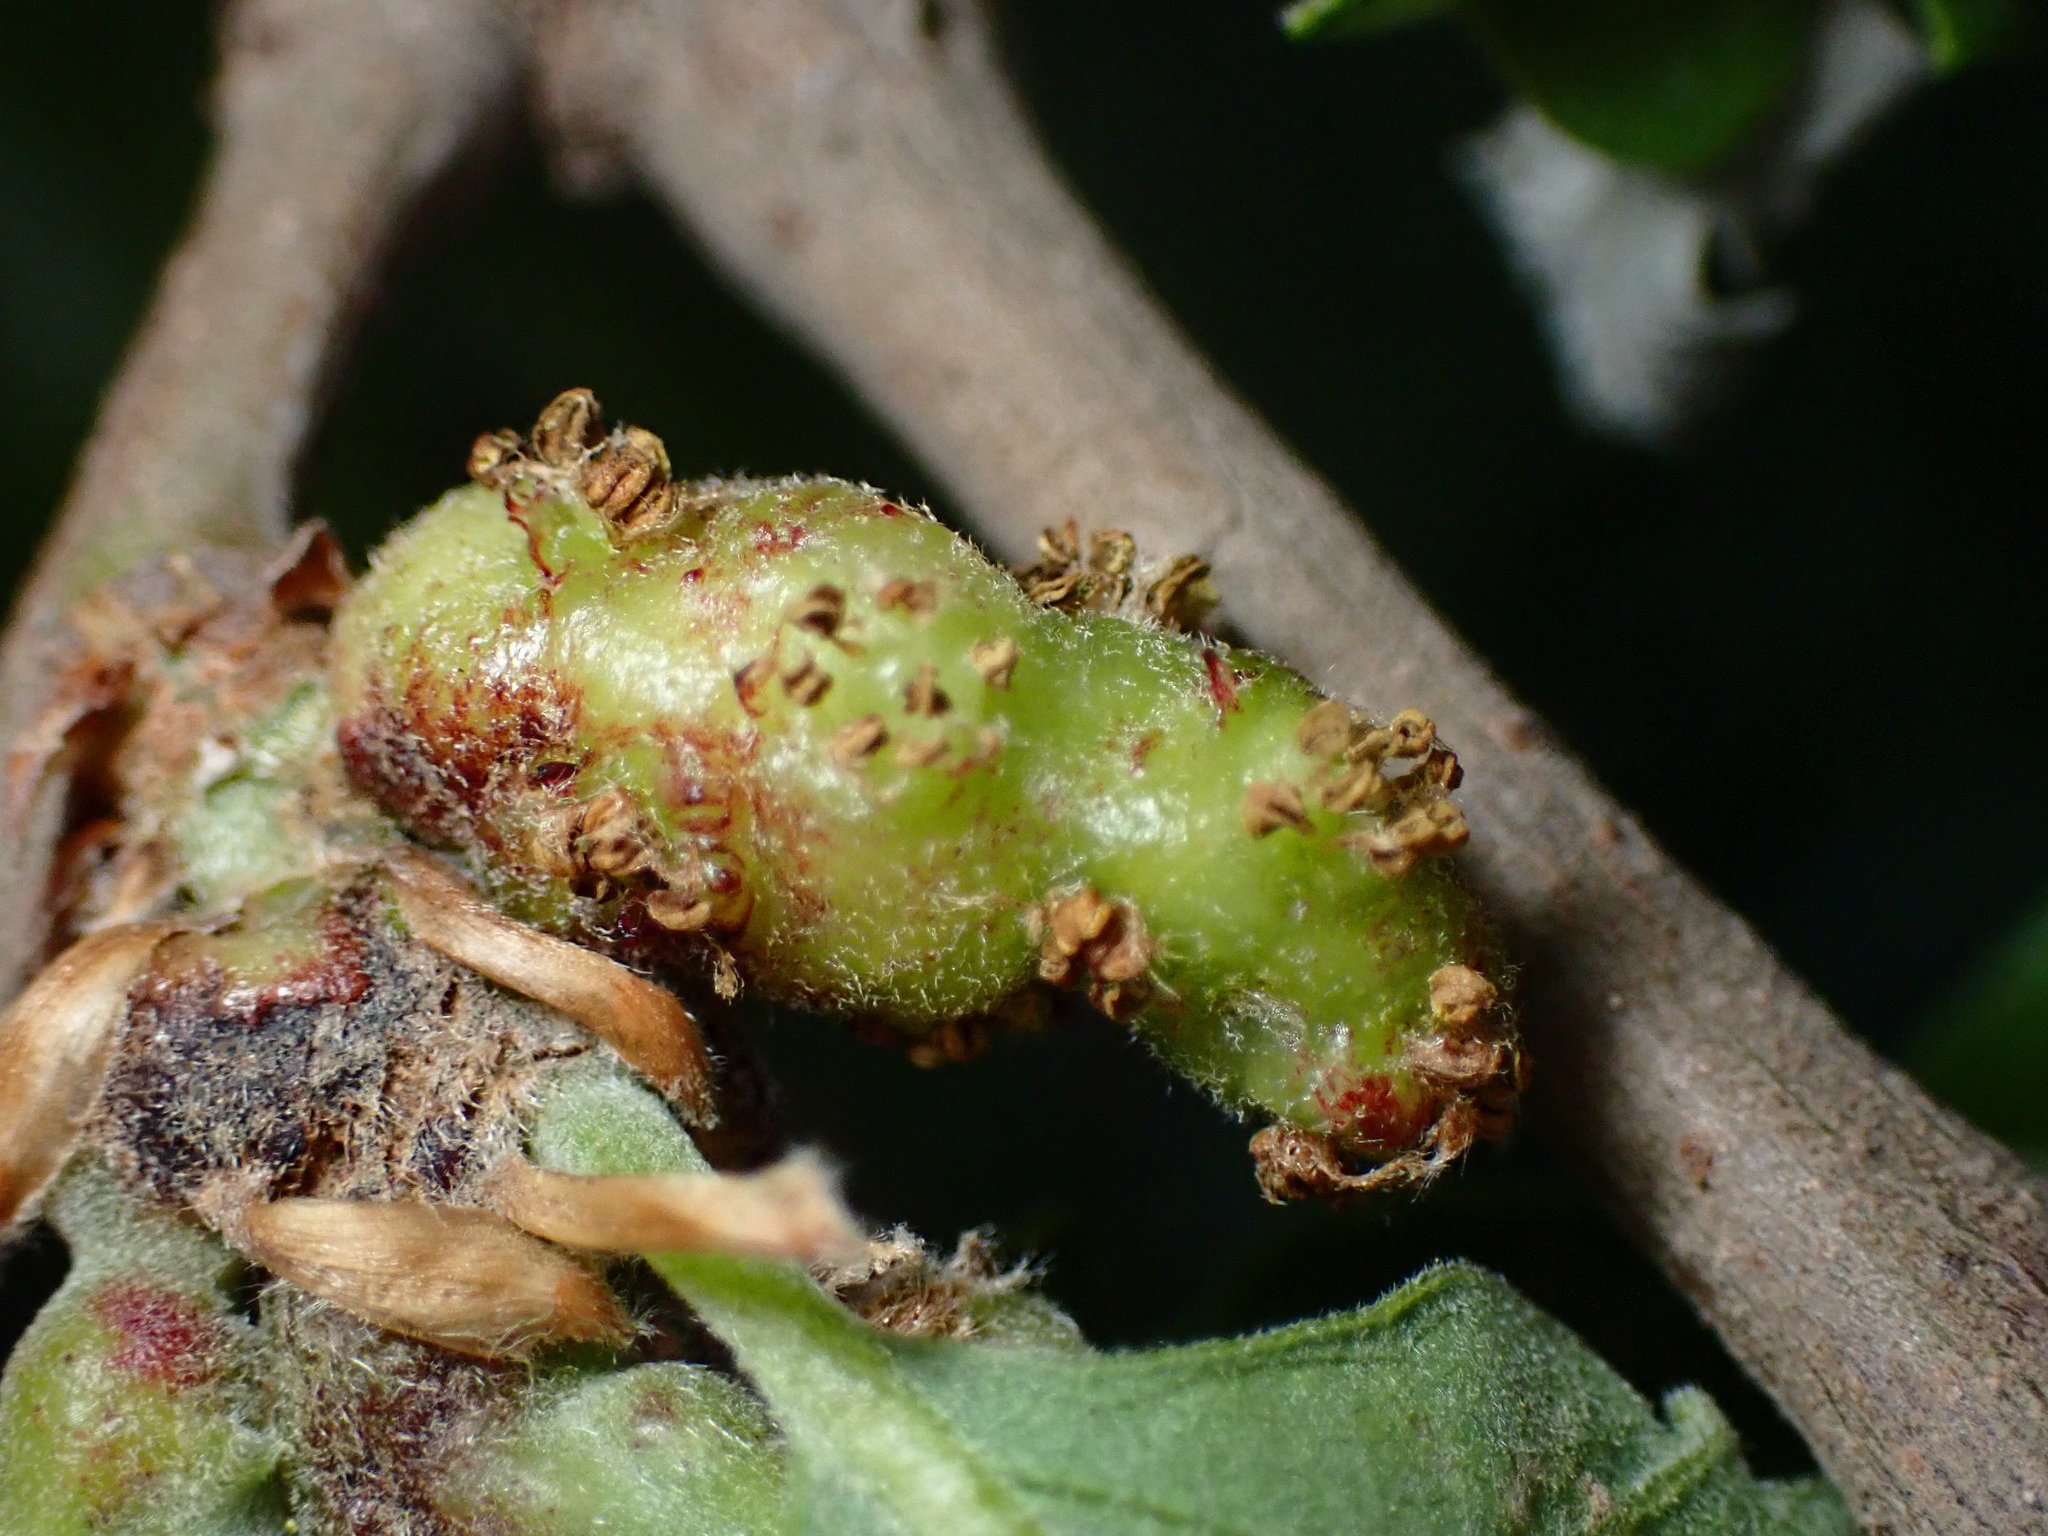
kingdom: Animalia
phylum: Arthropoda
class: Insecta
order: Hymenoptera
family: Cynipidae
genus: Callirhytis
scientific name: Callirhytis
